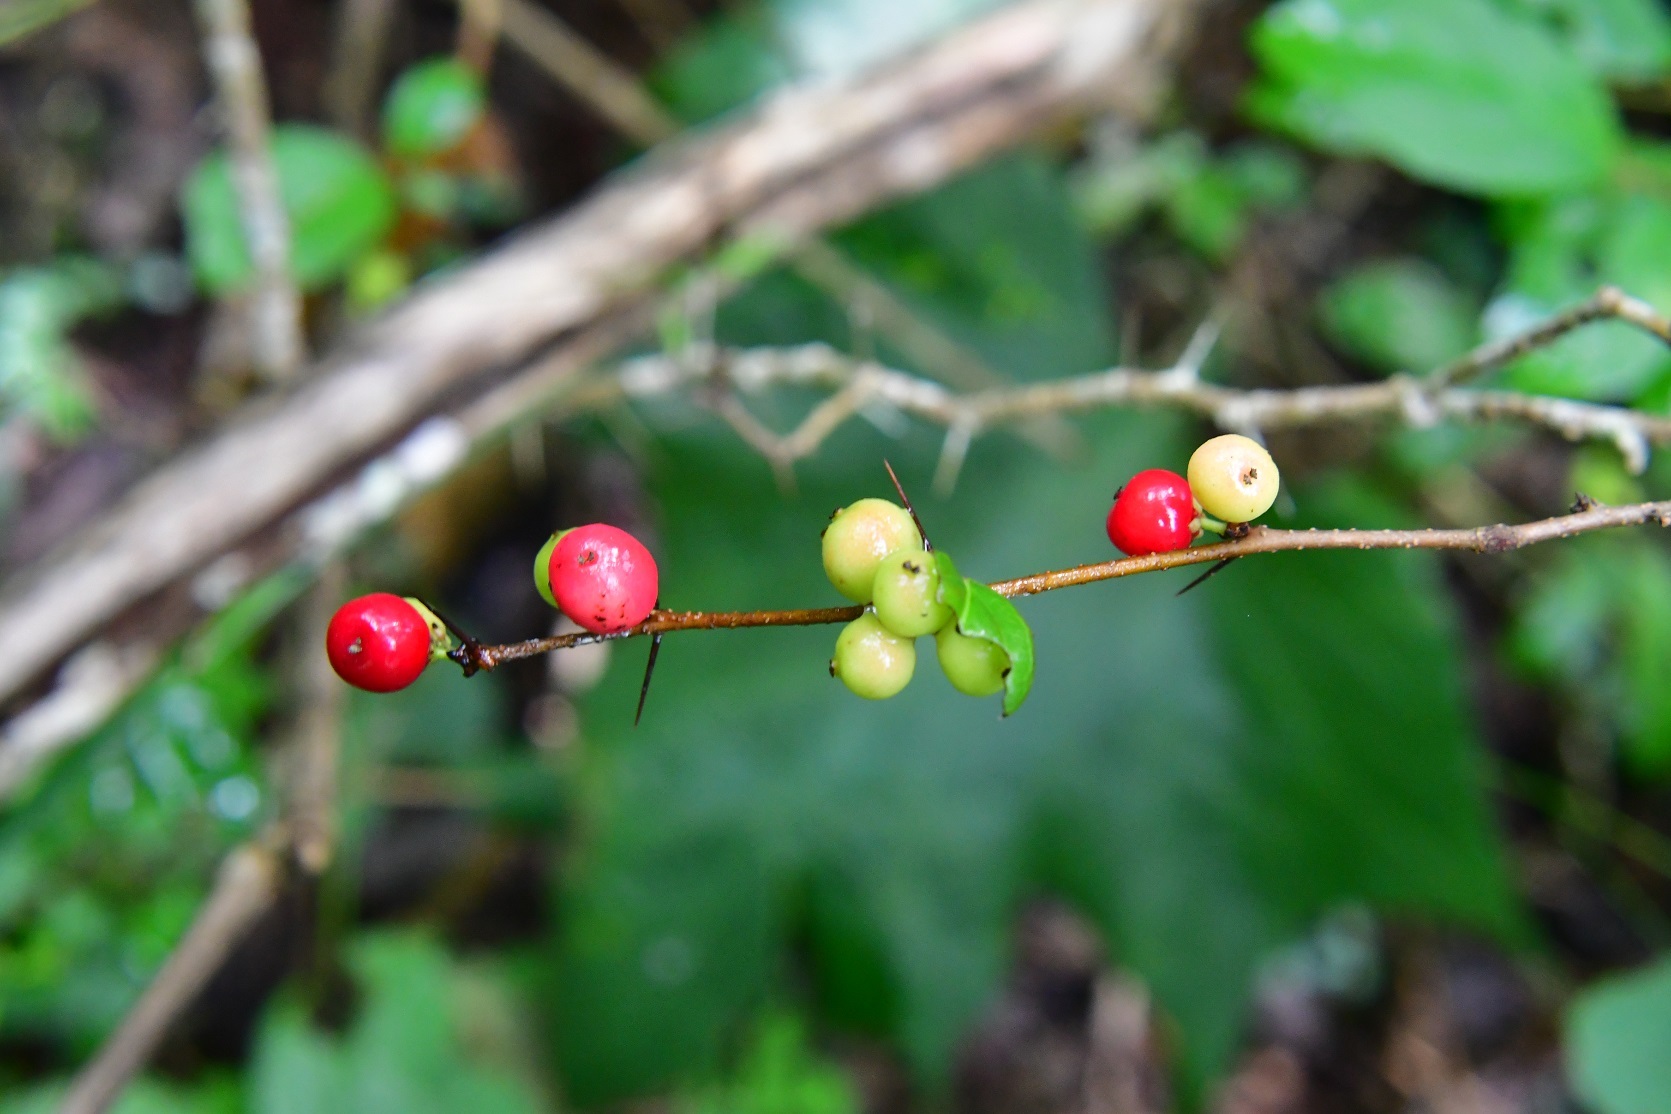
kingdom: Plantae
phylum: Tracheophyta
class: Magnoliopsida
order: Malpighiales
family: Salicaceae
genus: Xylosma
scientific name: Xylosma chiapensis
